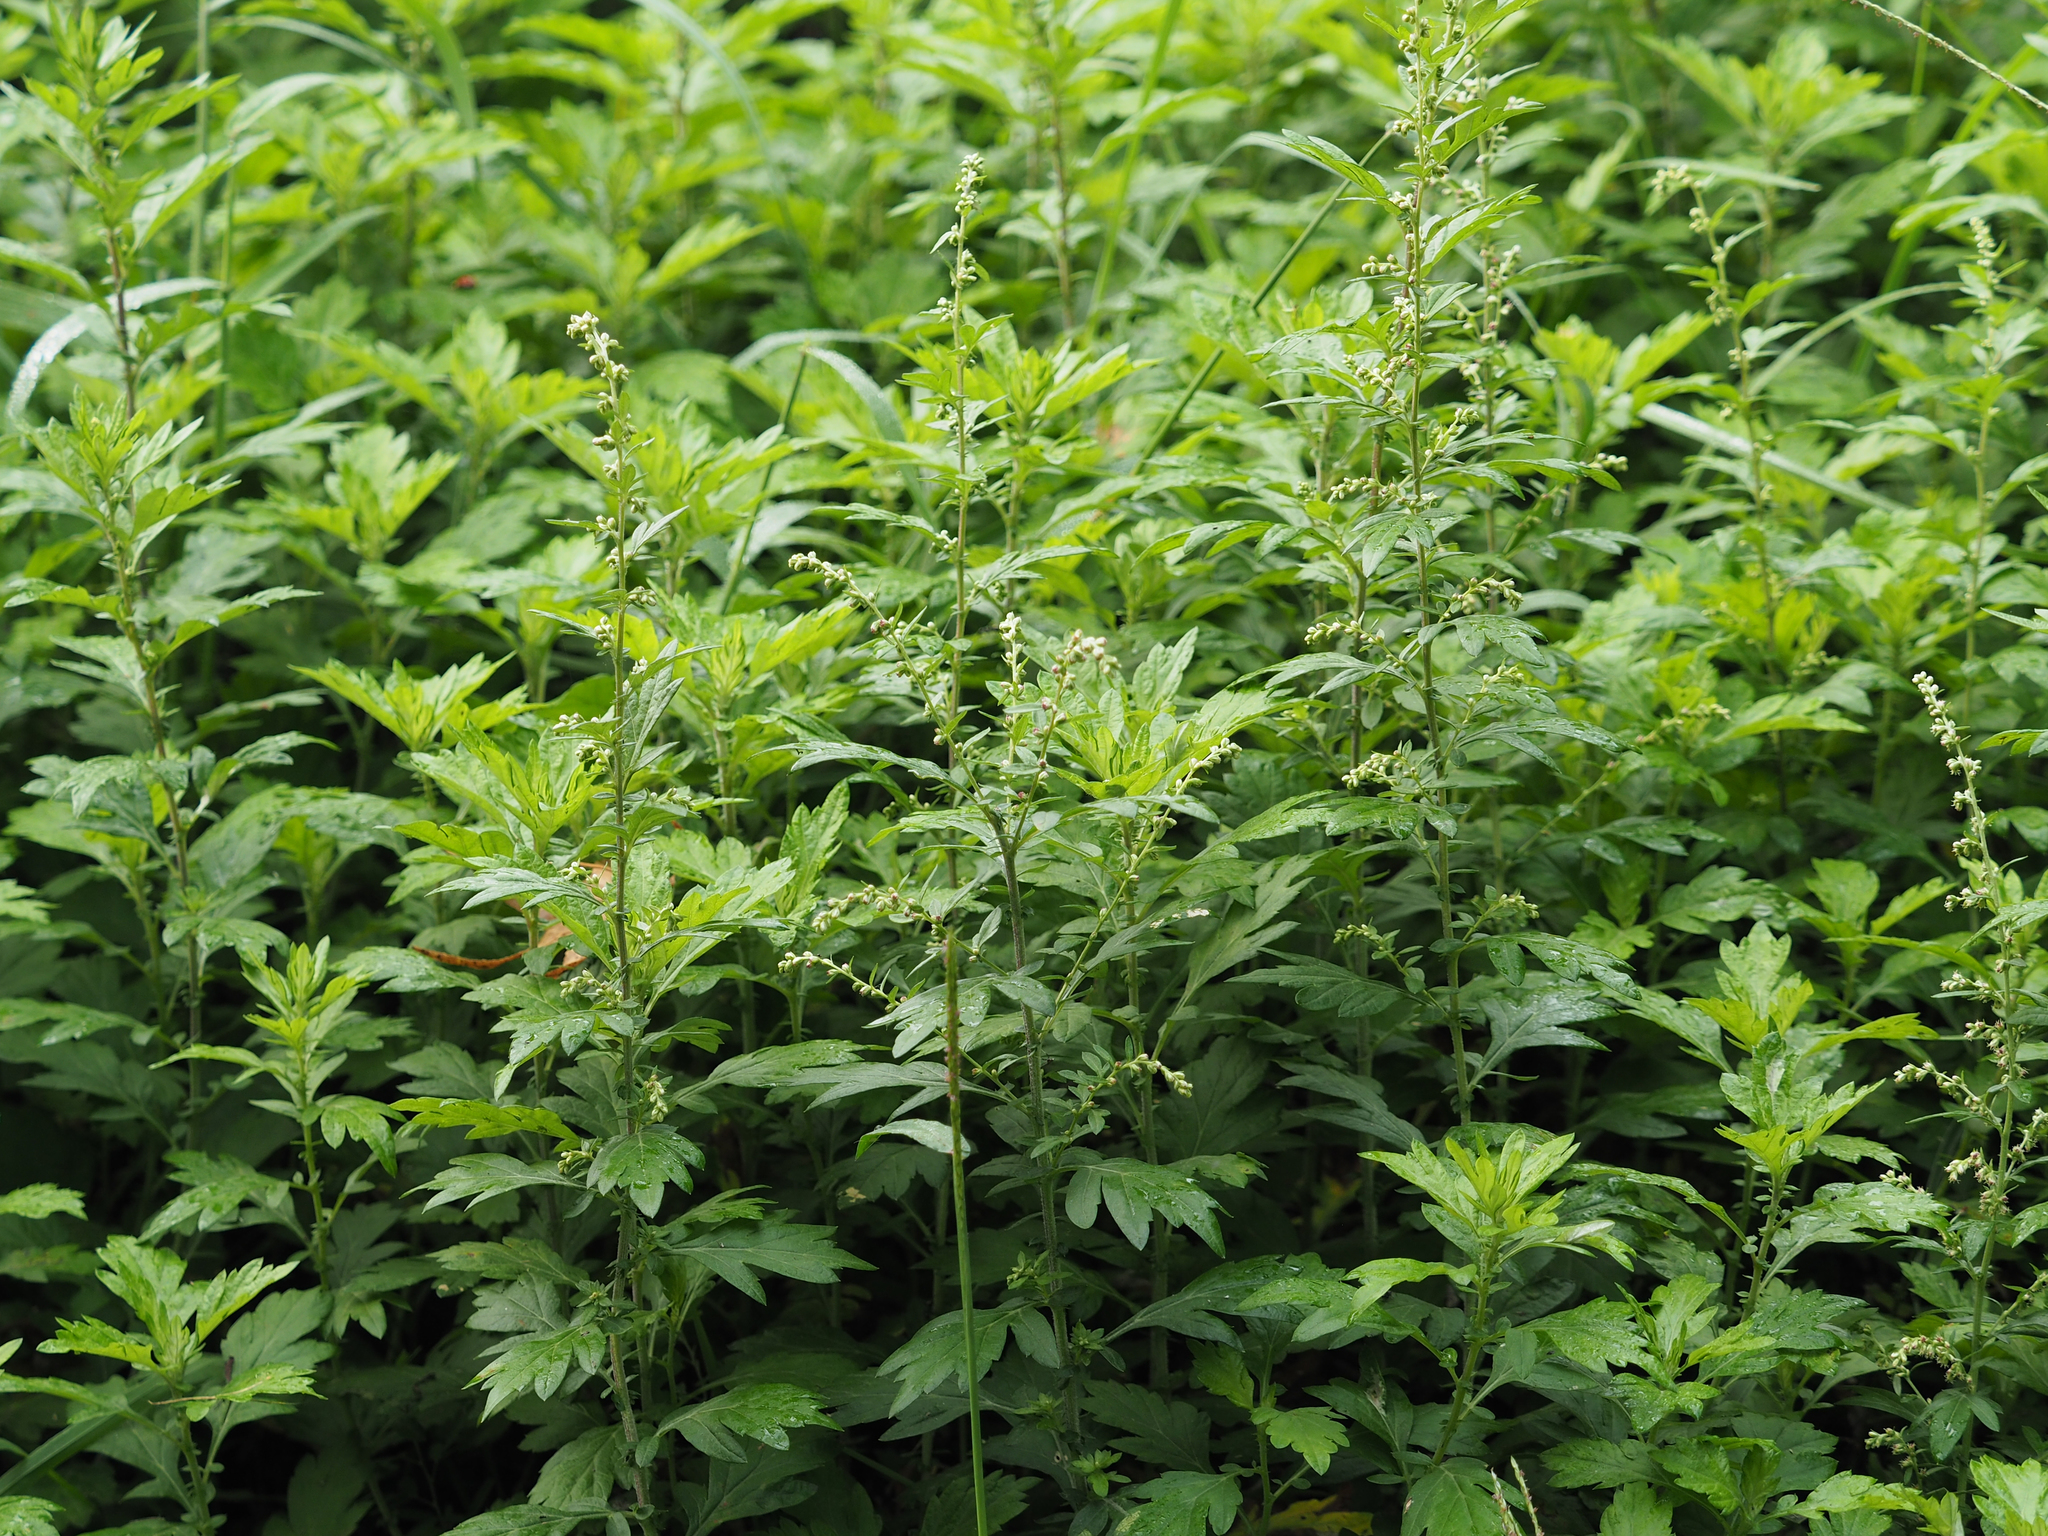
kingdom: Plantae
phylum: Tracheophyta
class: Magnoliopsida
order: Asterales
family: Asteraceae
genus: Artemisia
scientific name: Artemisia vulgaris
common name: Mugwort
